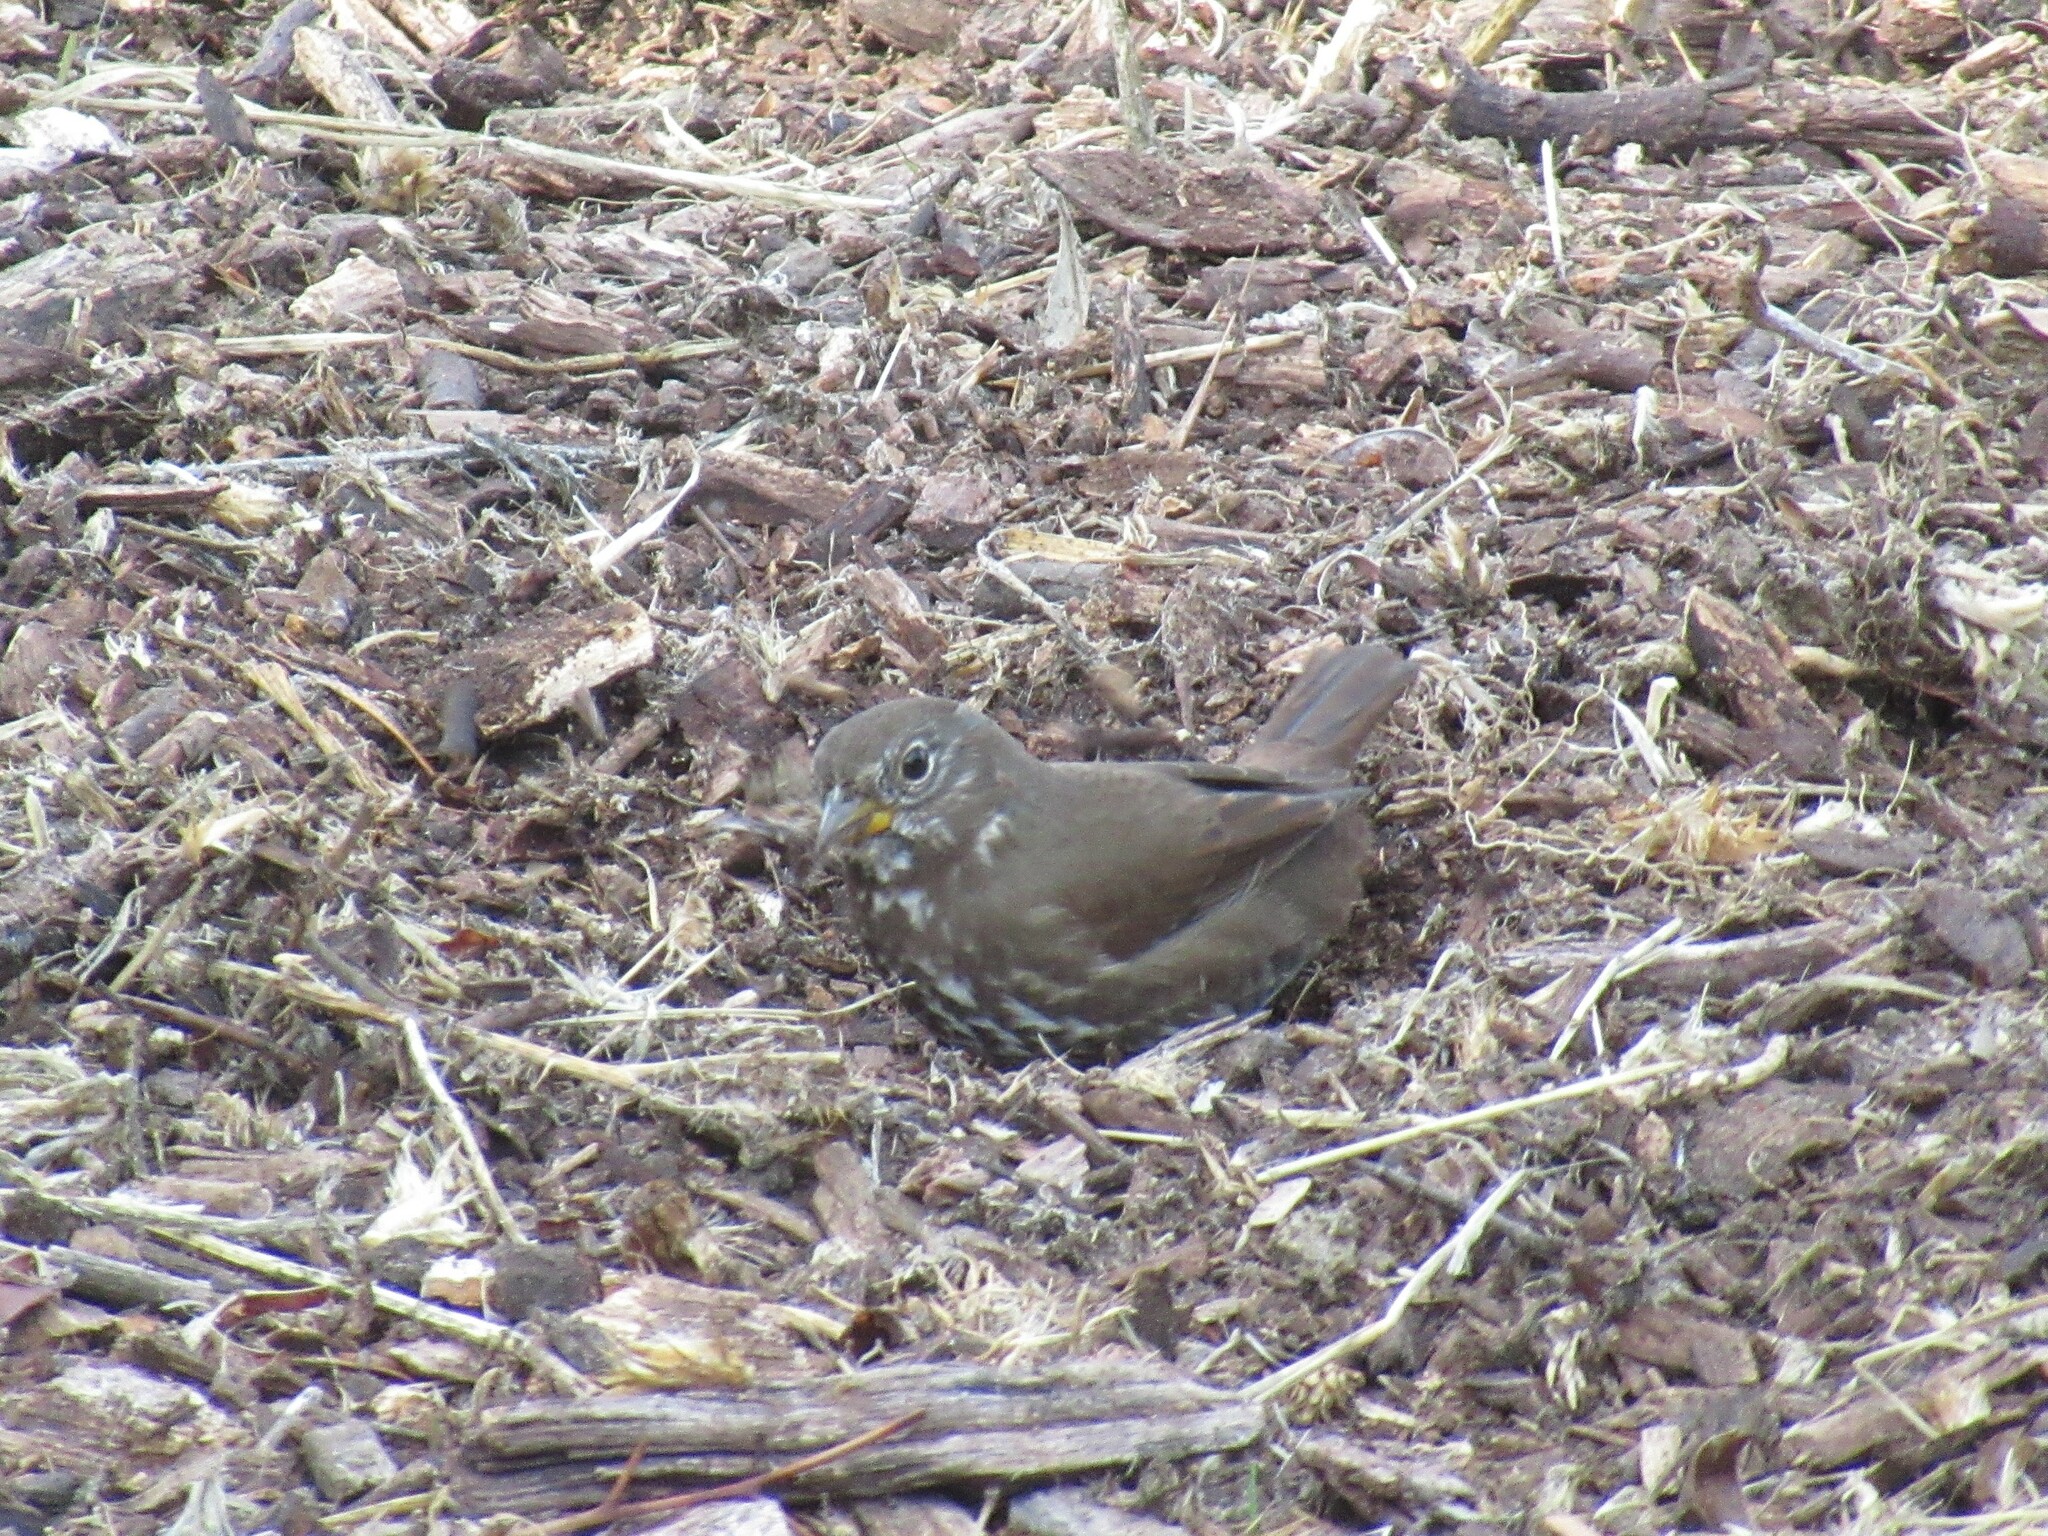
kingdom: Animalia
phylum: Chordata
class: Aves
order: Passeriformes
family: Passerellidae
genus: Passerella
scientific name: Passerella iliaca
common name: Fox sparrow
